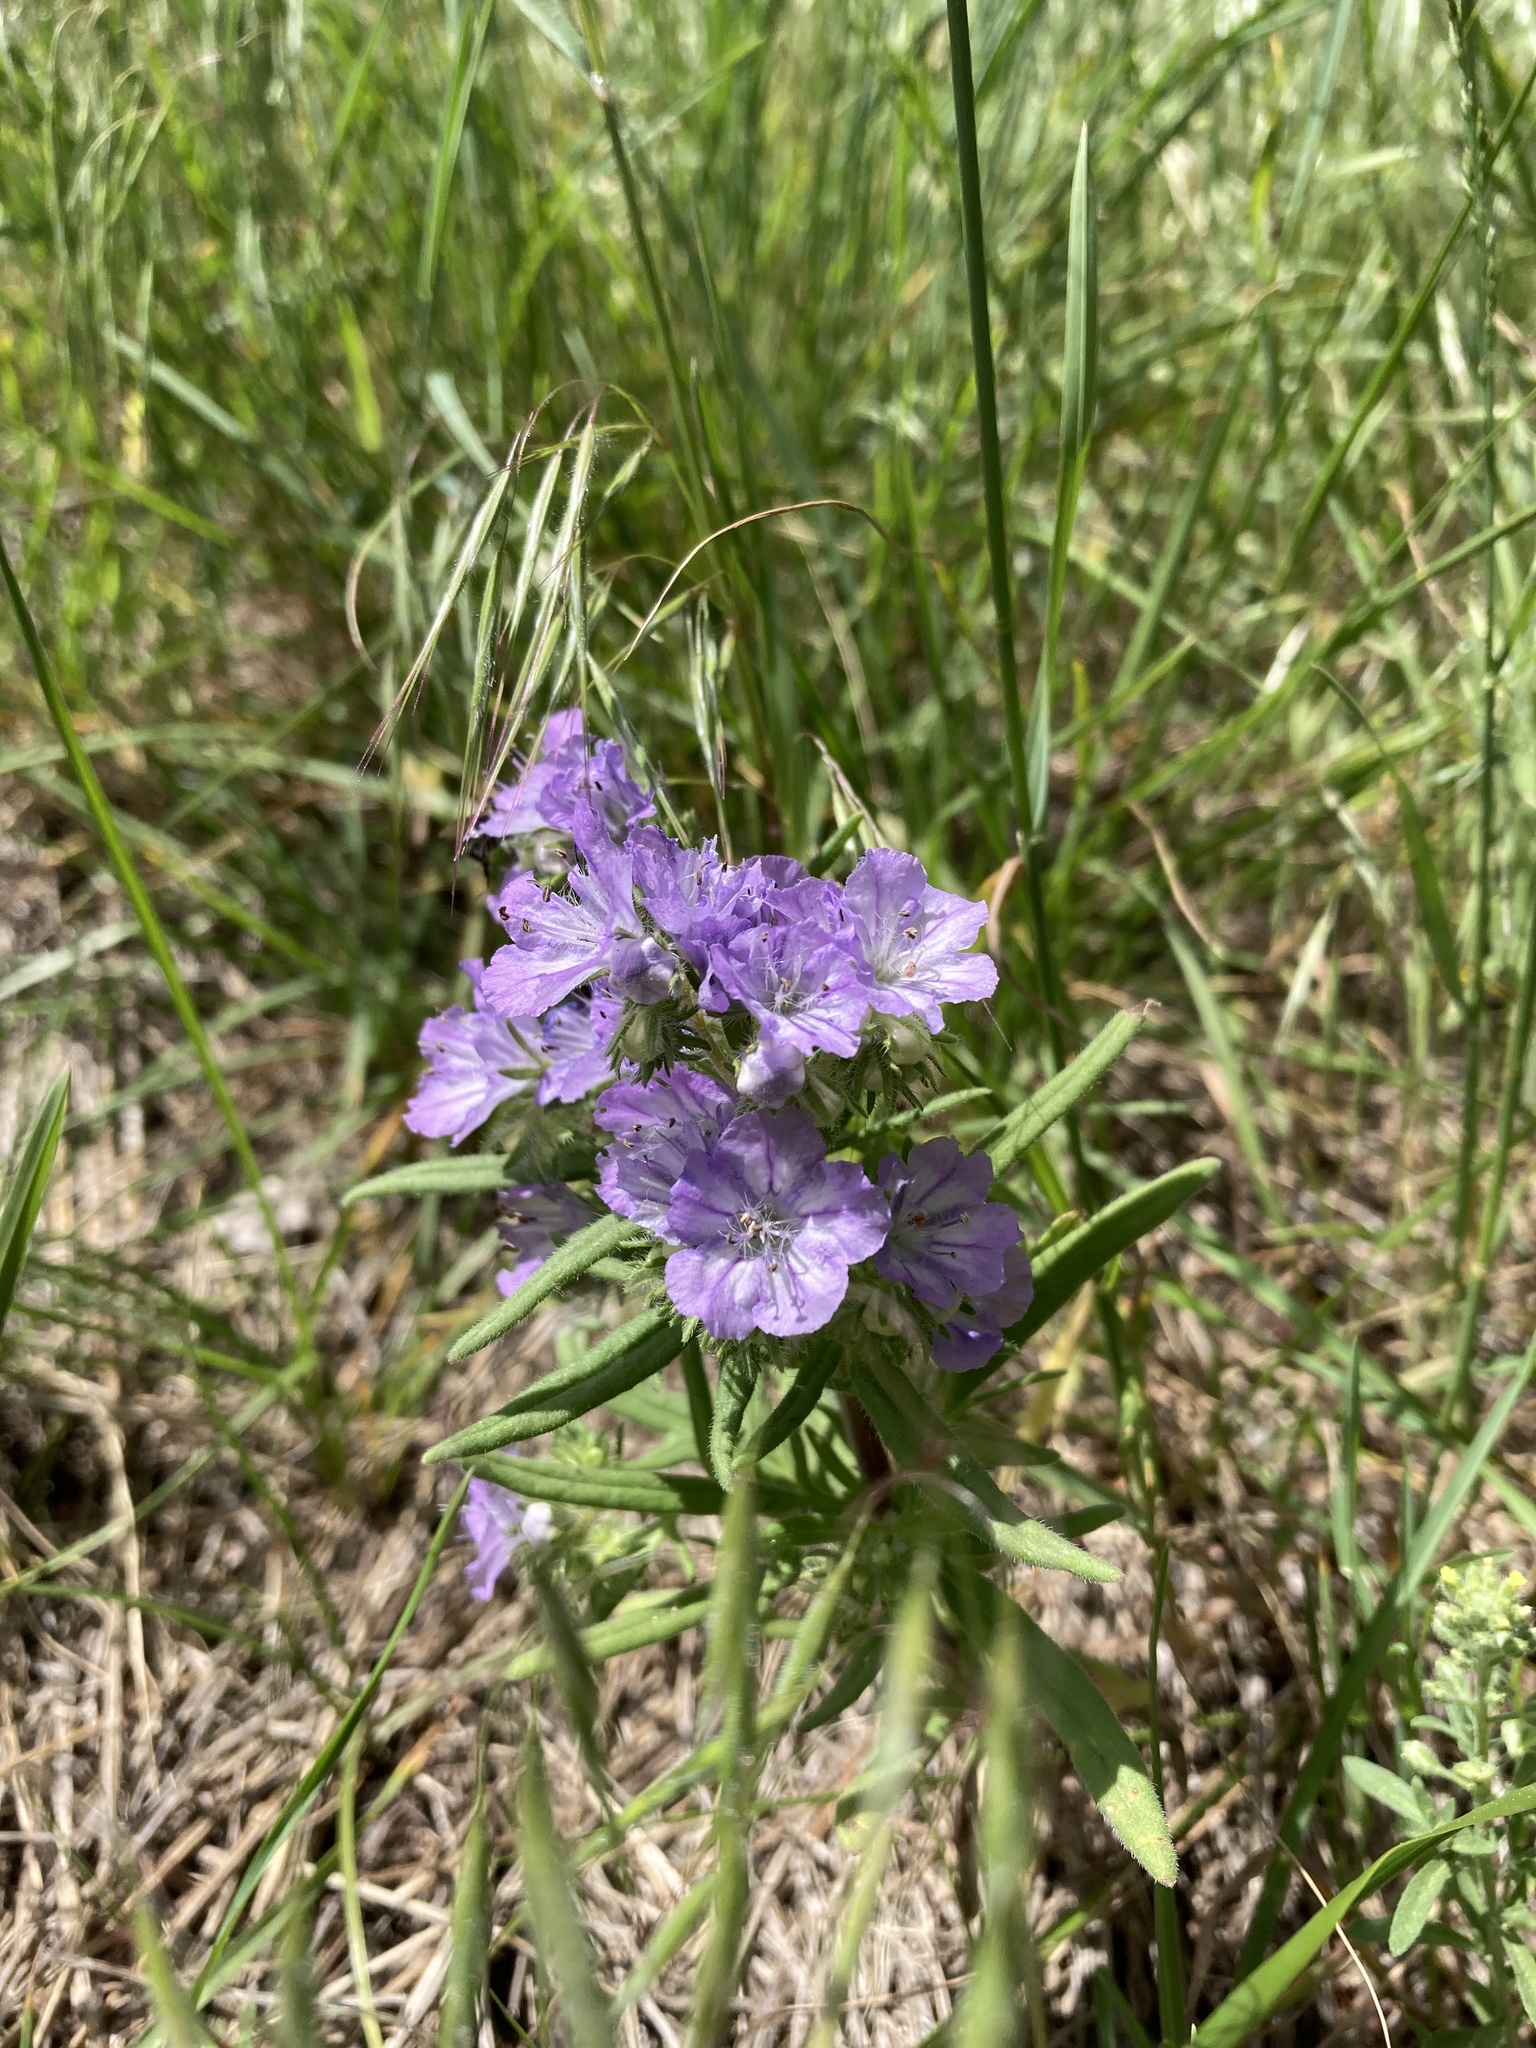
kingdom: Plantae
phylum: Tracheophyta
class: Magnoliopsida
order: Boraginales
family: Hydrophyllaceae
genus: Phacelia
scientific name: Phacelia linearis
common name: Linear-leaved phacelia
